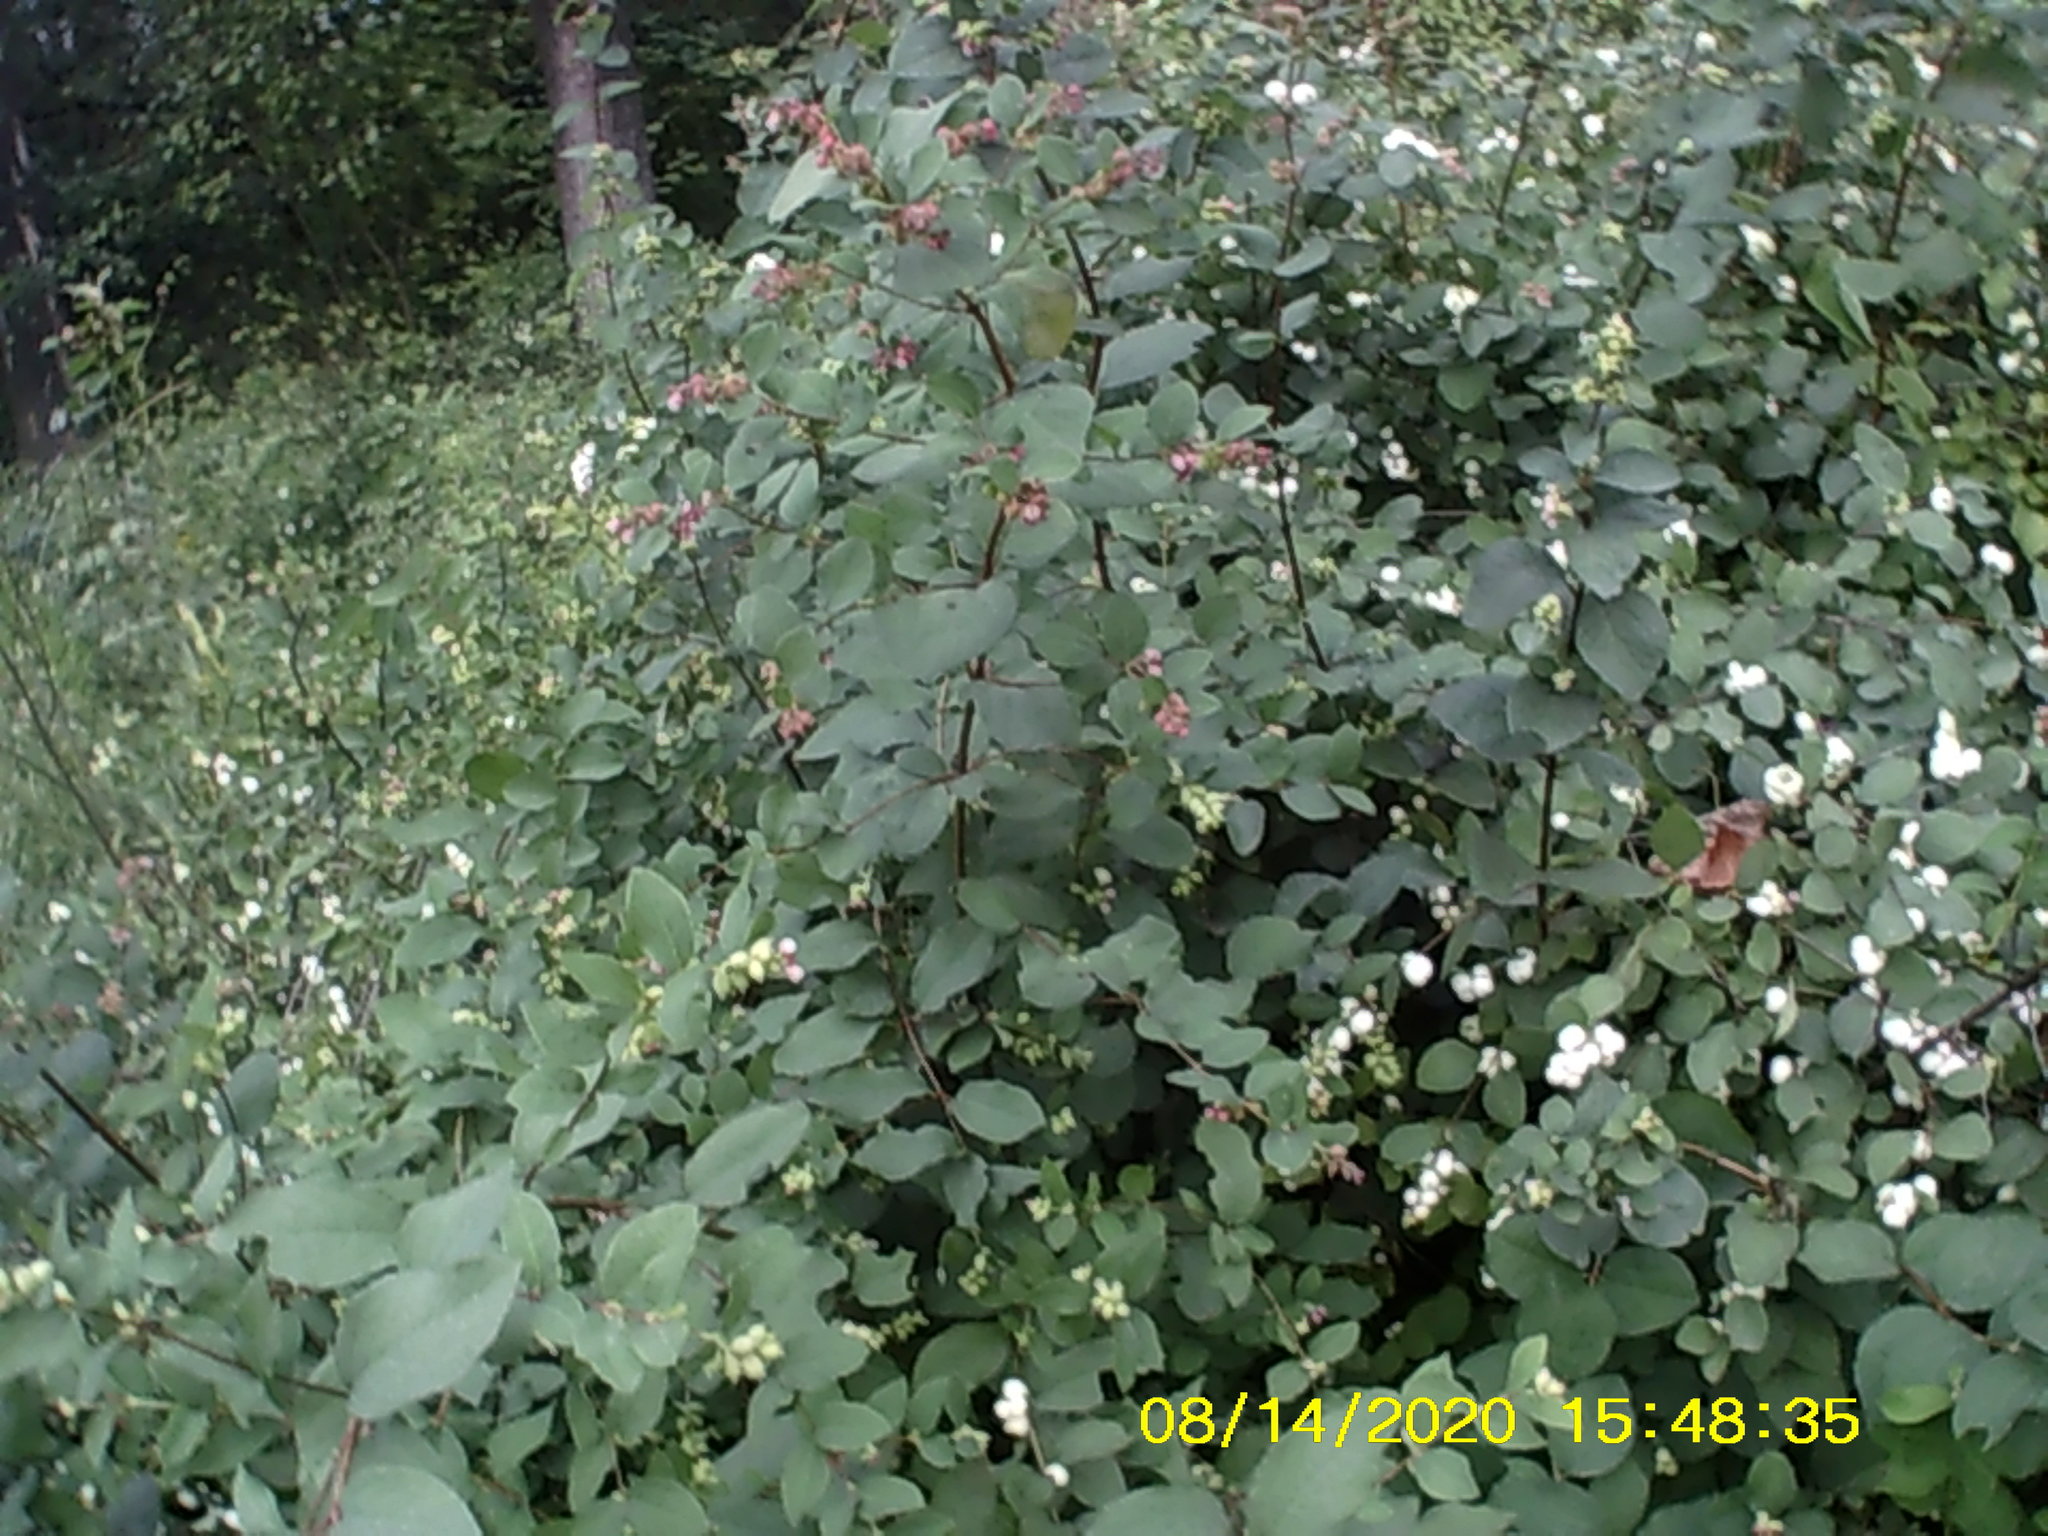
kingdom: Plantae
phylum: Tracheophyta
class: Magnoliopsida
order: Dipsacales
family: Caprifoliaceae
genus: Symphoricarpos
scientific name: Symphoricarpos albus
